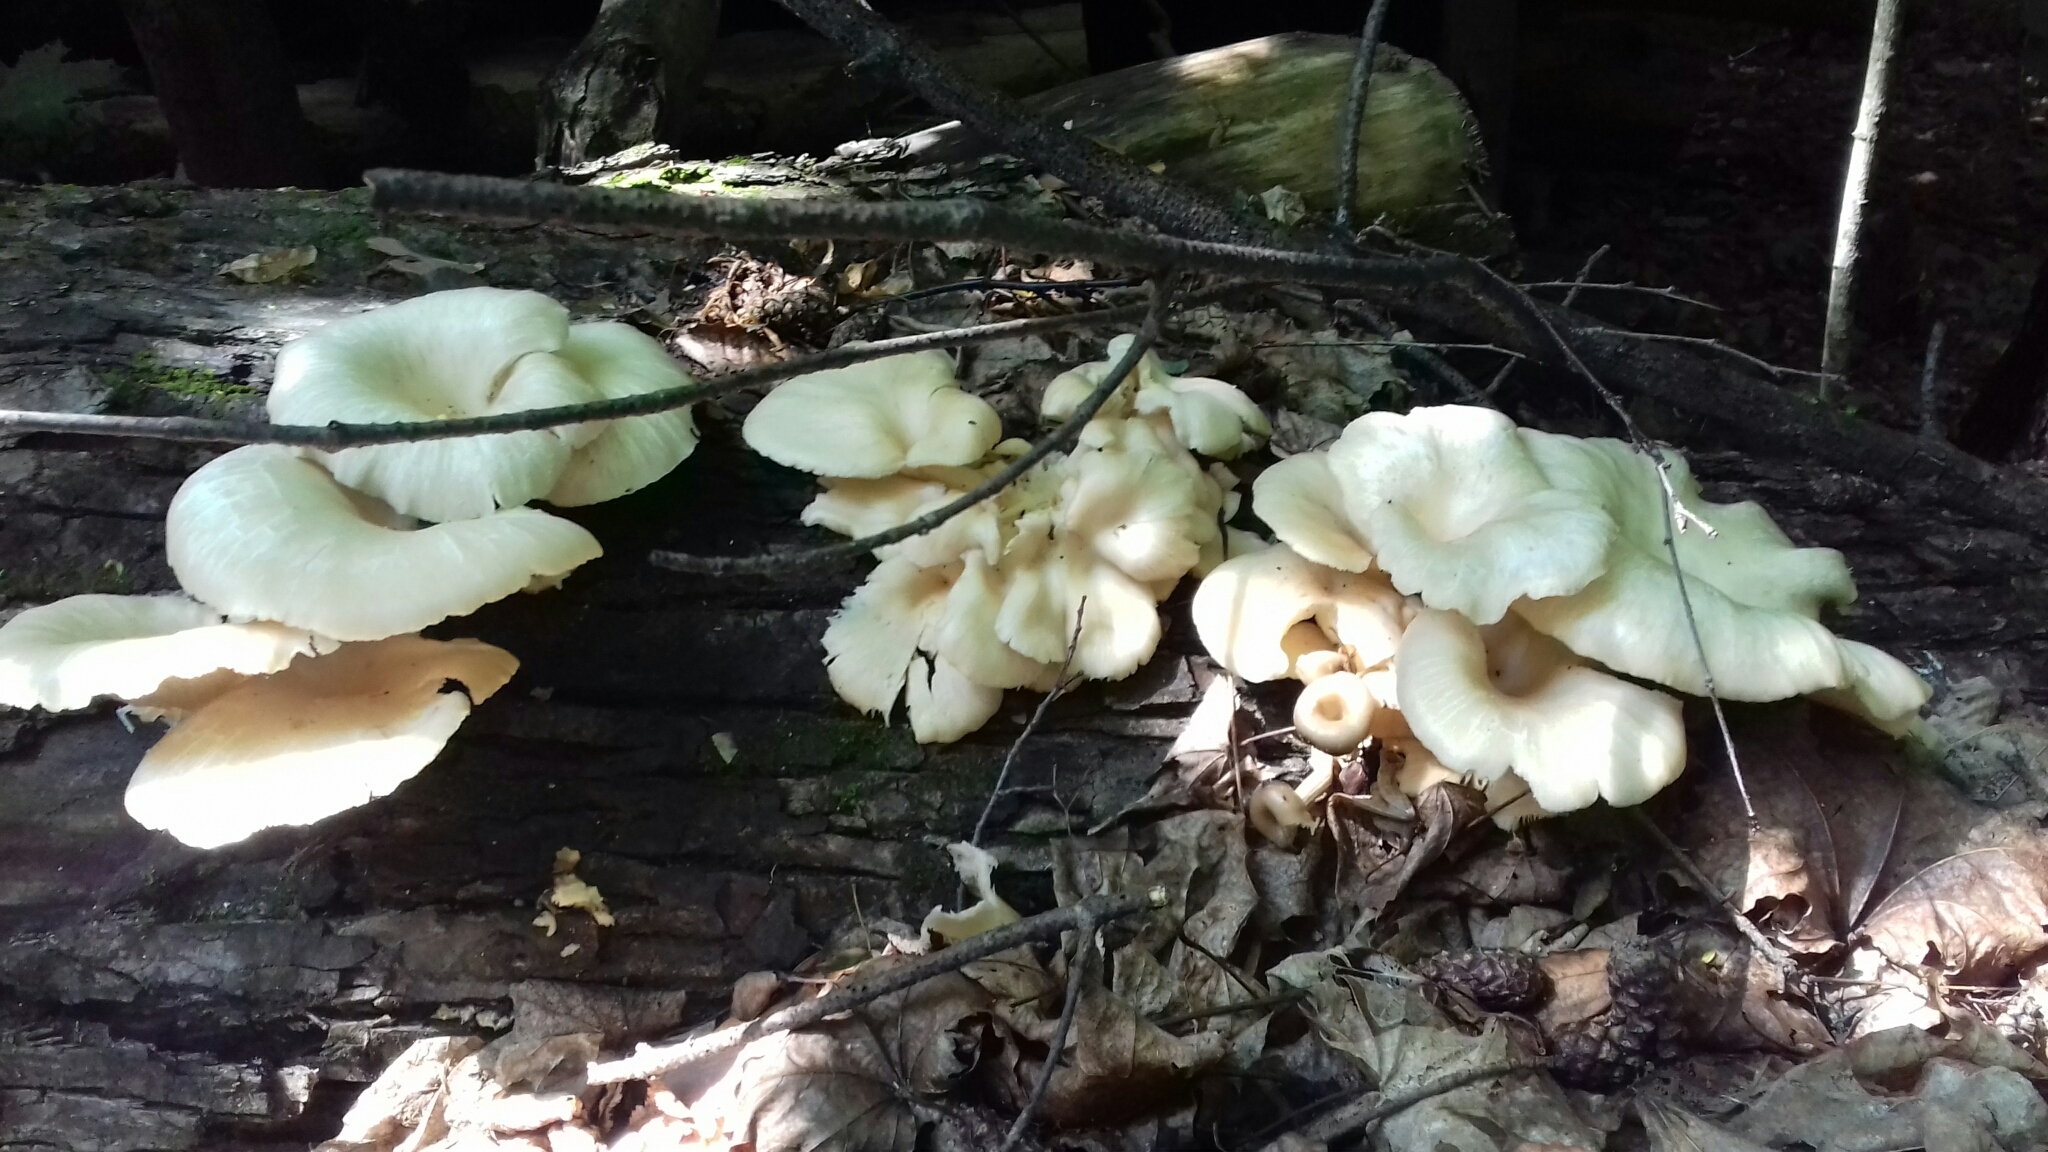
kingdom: Fungi
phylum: Basidiomycota
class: Agaricomycetes
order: Agaricales
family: Pleurotaceae
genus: Pleurotus
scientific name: Pleurotus pulmonarius
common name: Pale oyster
